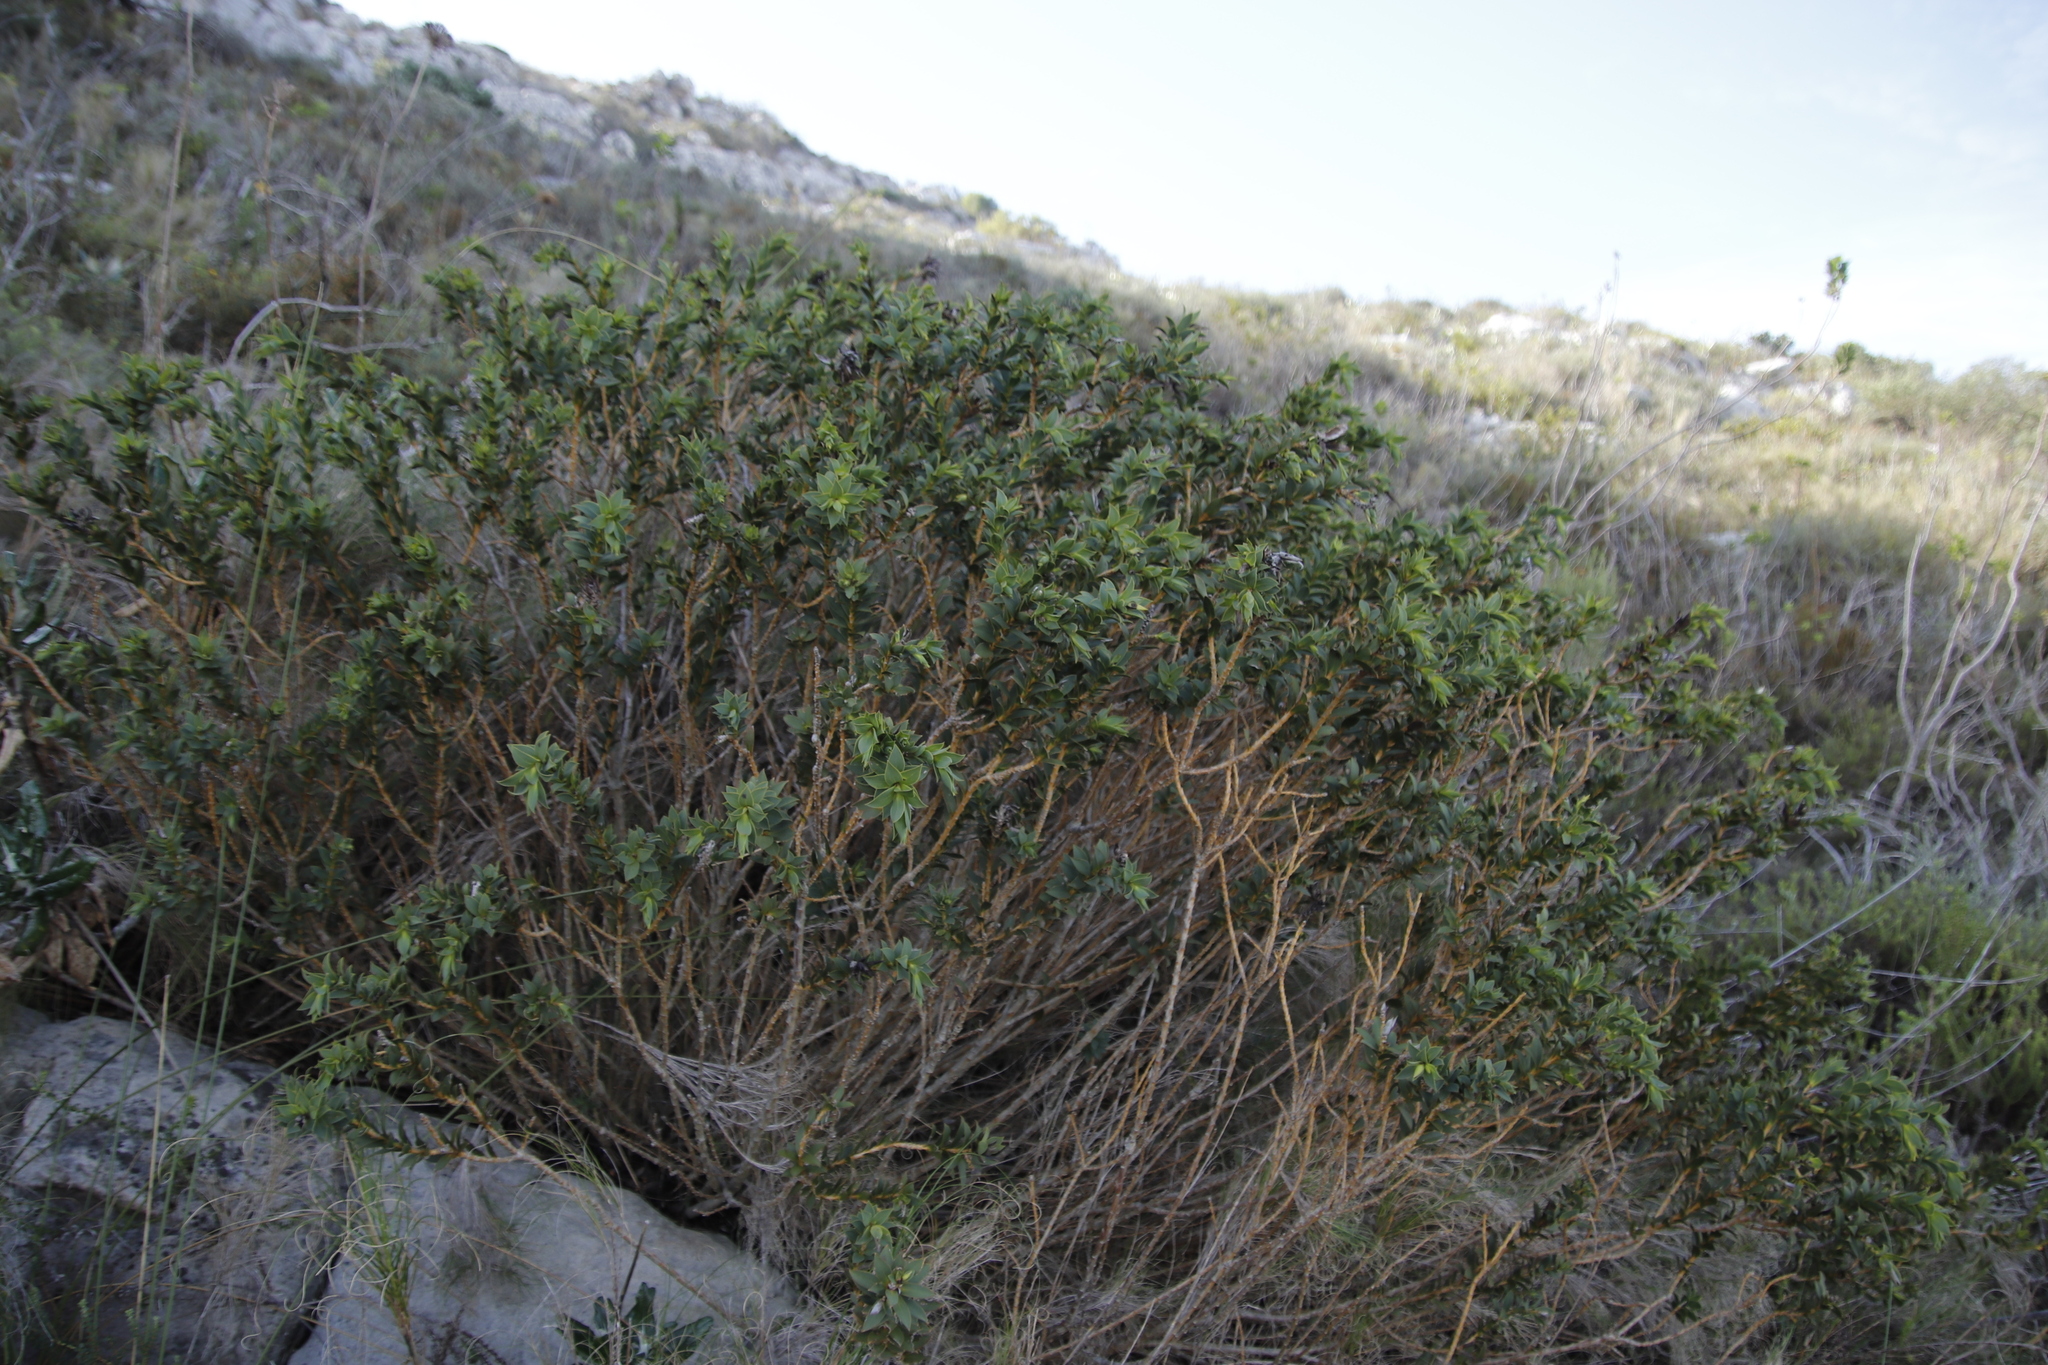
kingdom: Plantae
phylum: Tracheophyta
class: Magnoliopsida
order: Fabales
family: Fabaceae
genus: Liparia
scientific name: Liparia splendens
